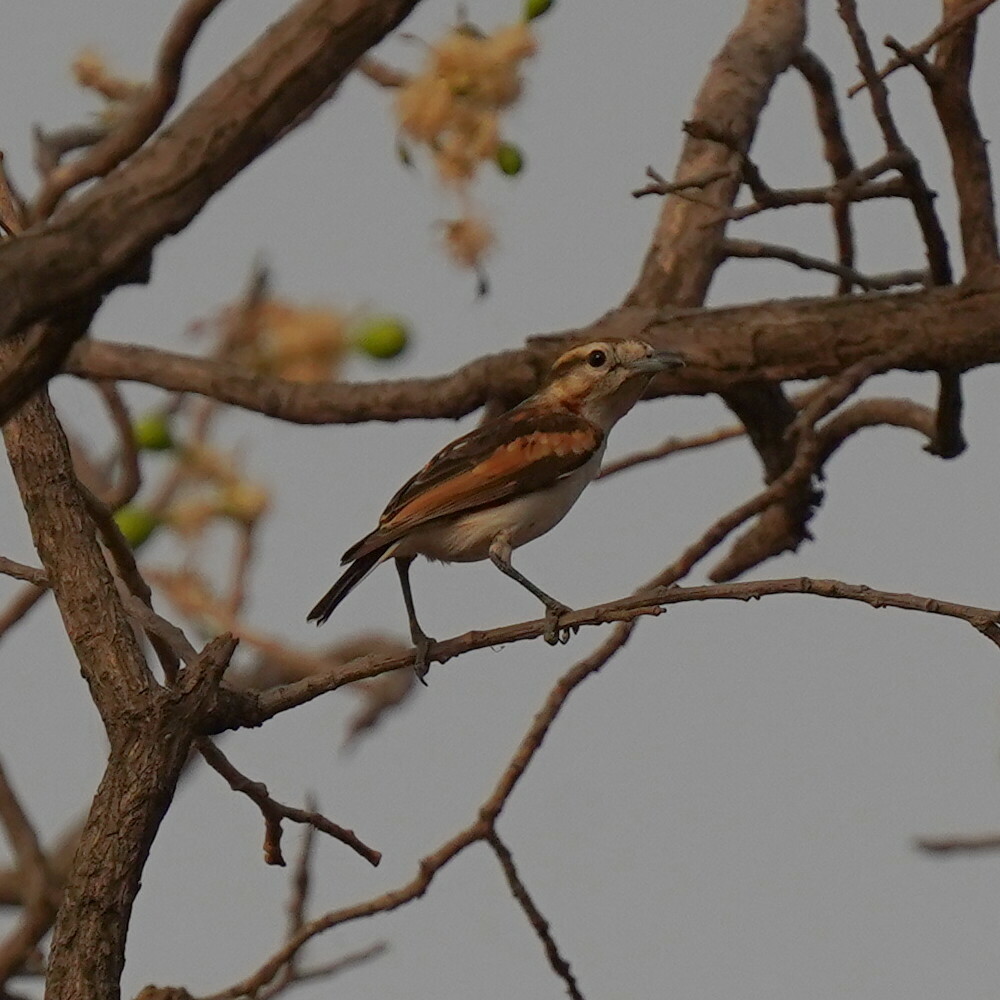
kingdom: Animalia
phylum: Chordata
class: Aves
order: Passeriformes
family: Malaconotidae
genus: Nilaus
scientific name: Nilaus afer
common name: Brubru
